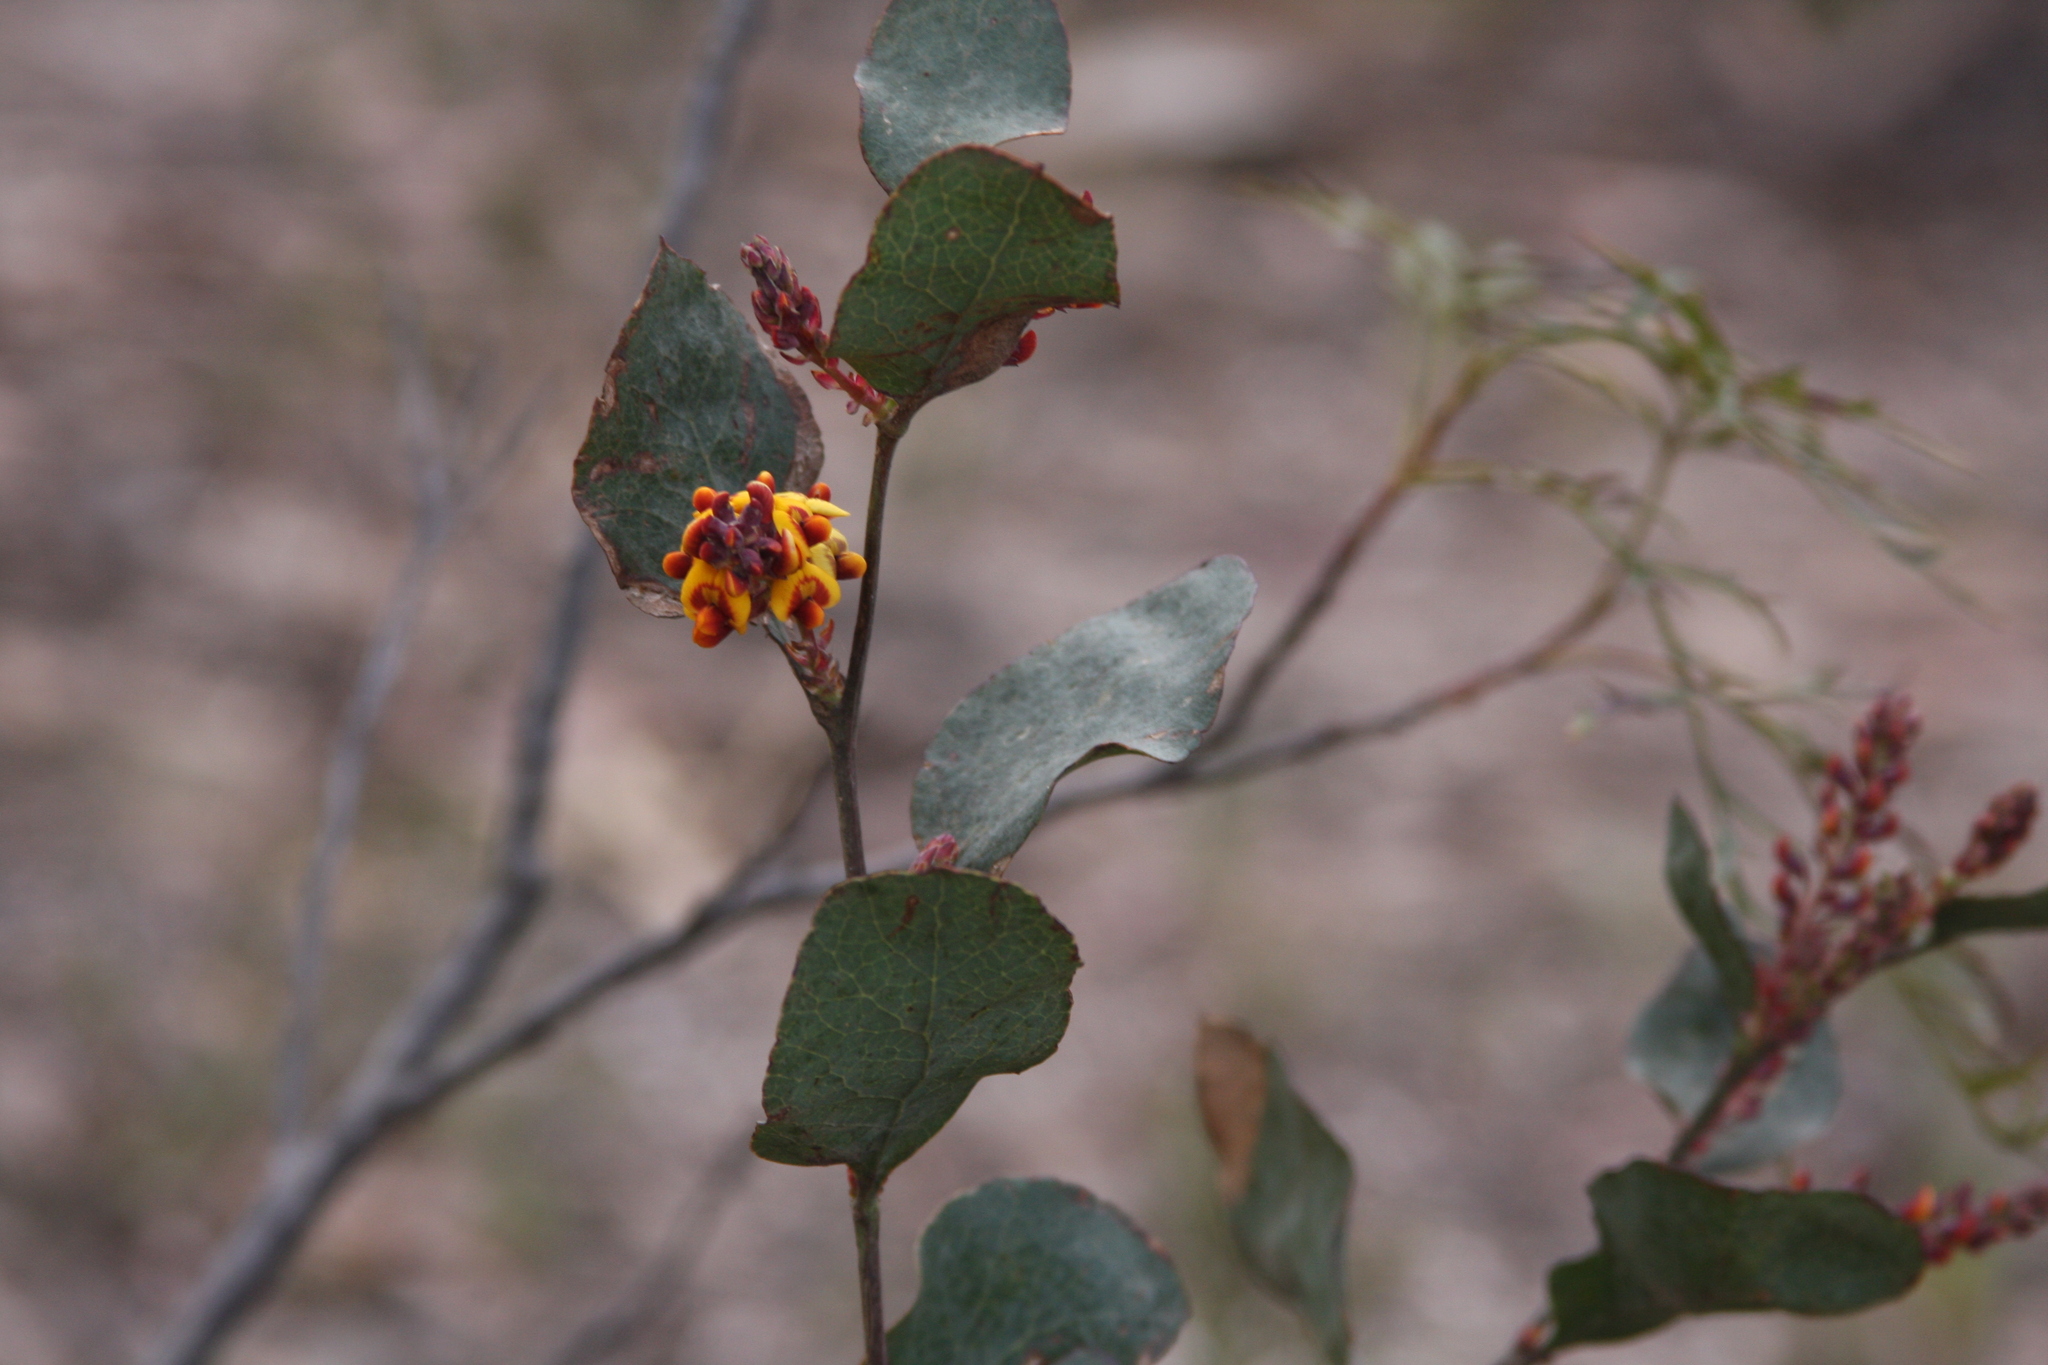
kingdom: Plantae
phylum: Tracheophyta
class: Magnoliopsida
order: Fabales
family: Fabaceae
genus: Daviesia
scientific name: Daviesia latifolia
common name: Hop bitter-pea
